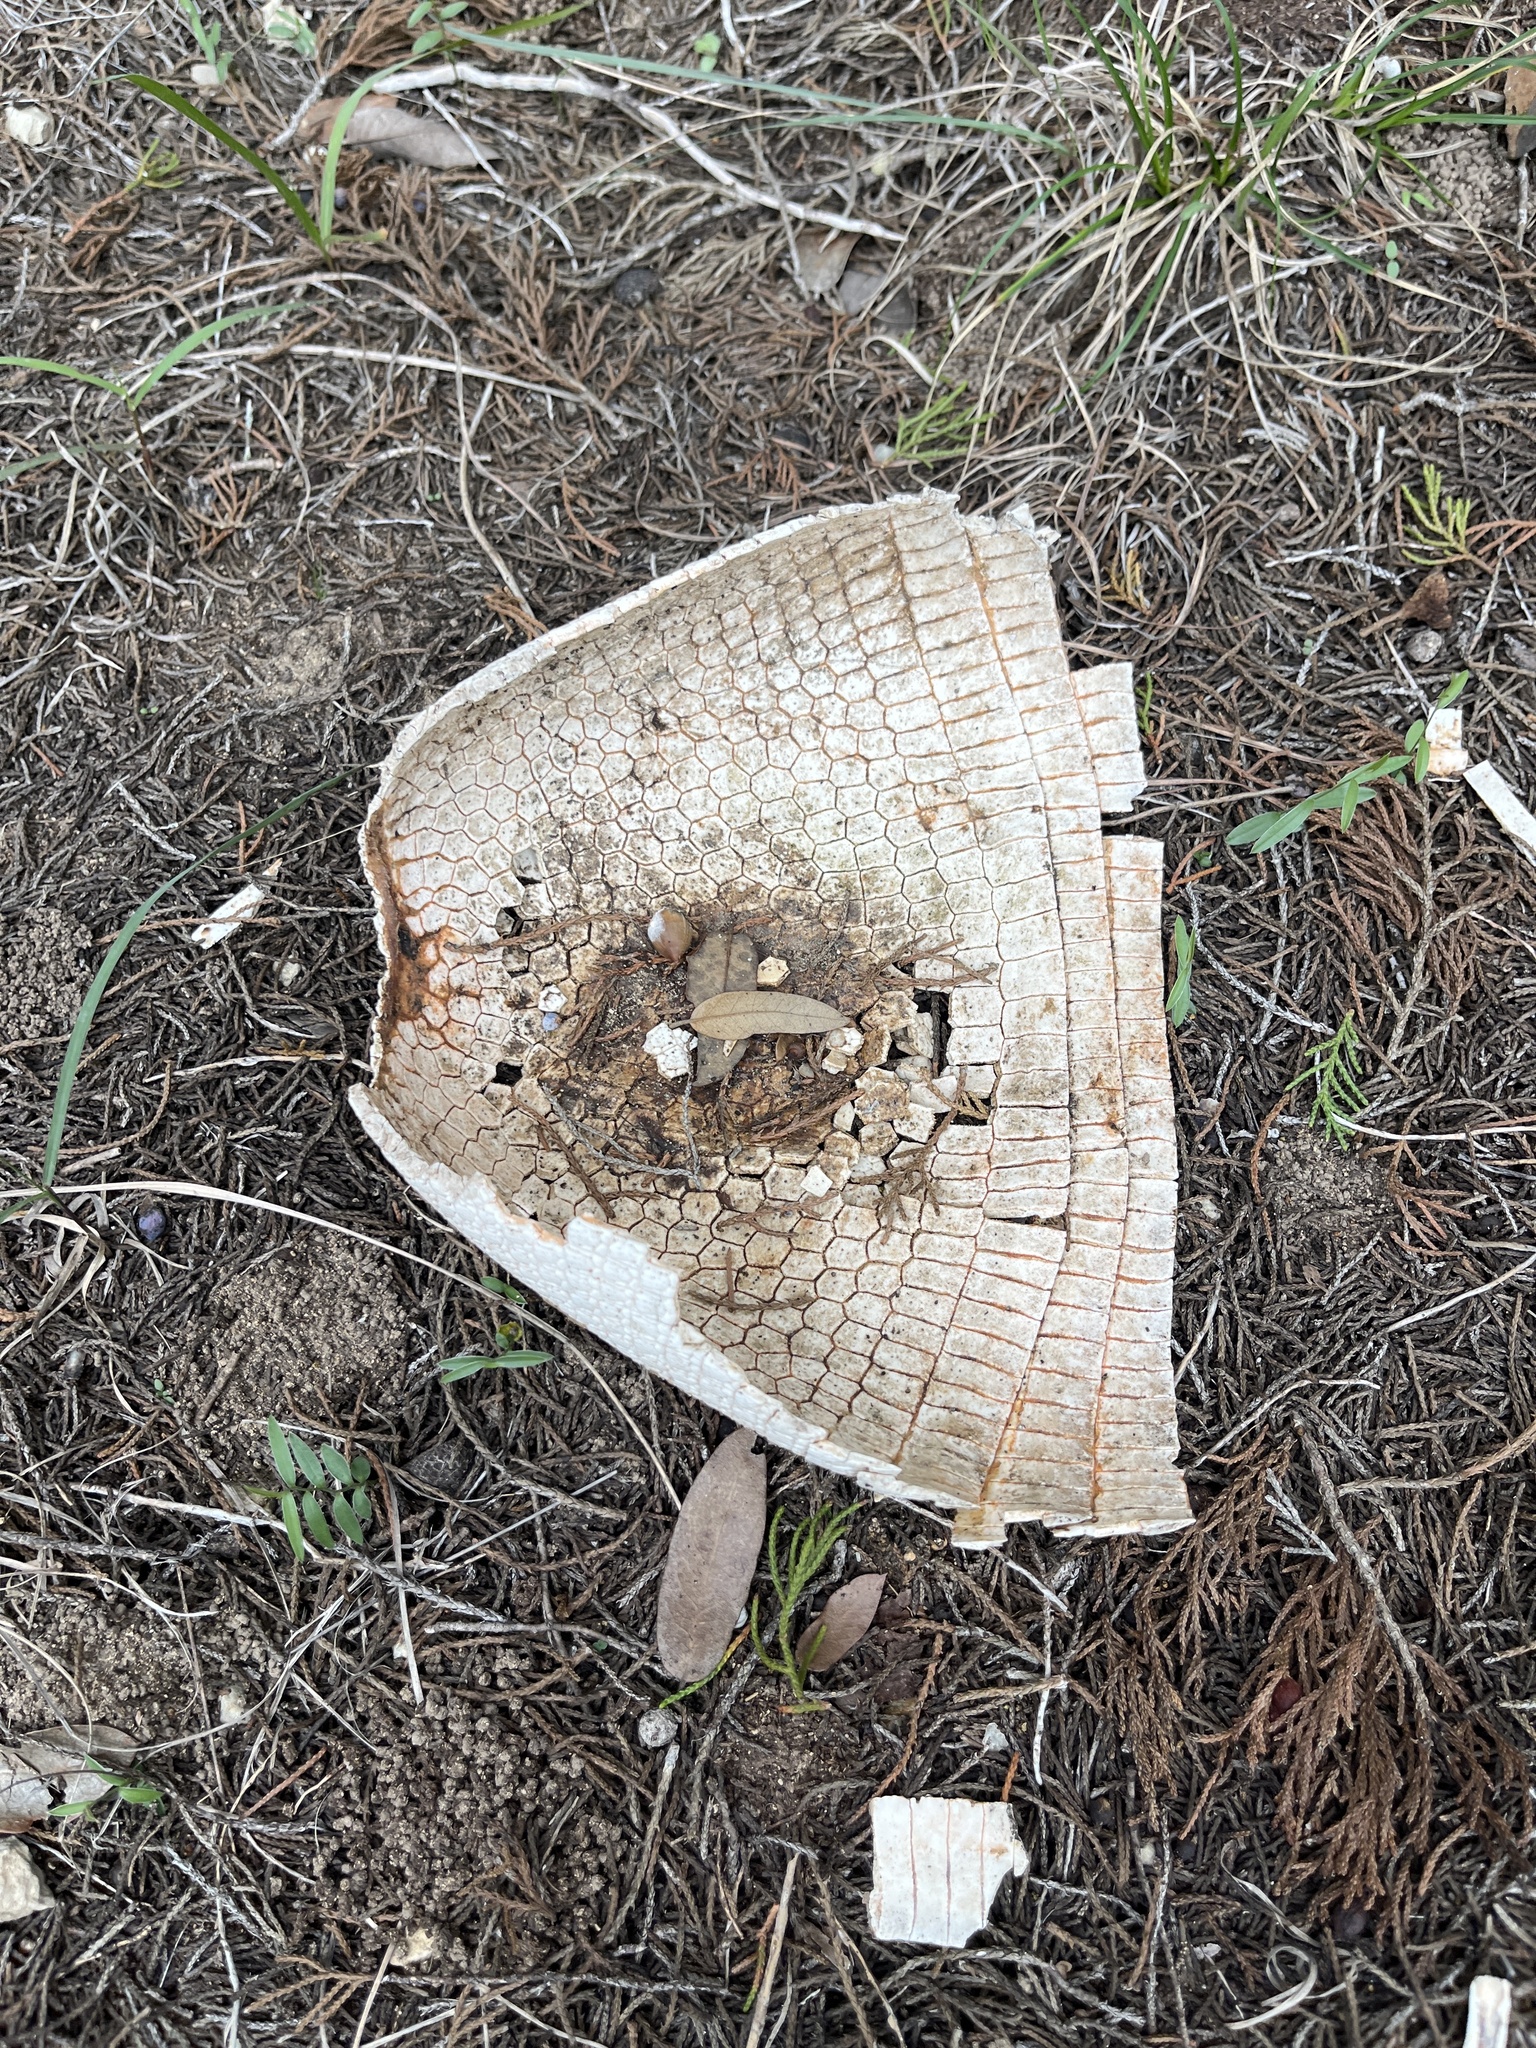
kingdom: Animalia
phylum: Chordata
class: Mammalia
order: Cingulata
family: Dasypodidae
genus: Dasypus
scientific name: Dasypus novemcinctus
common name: Nine-banded armadillo
